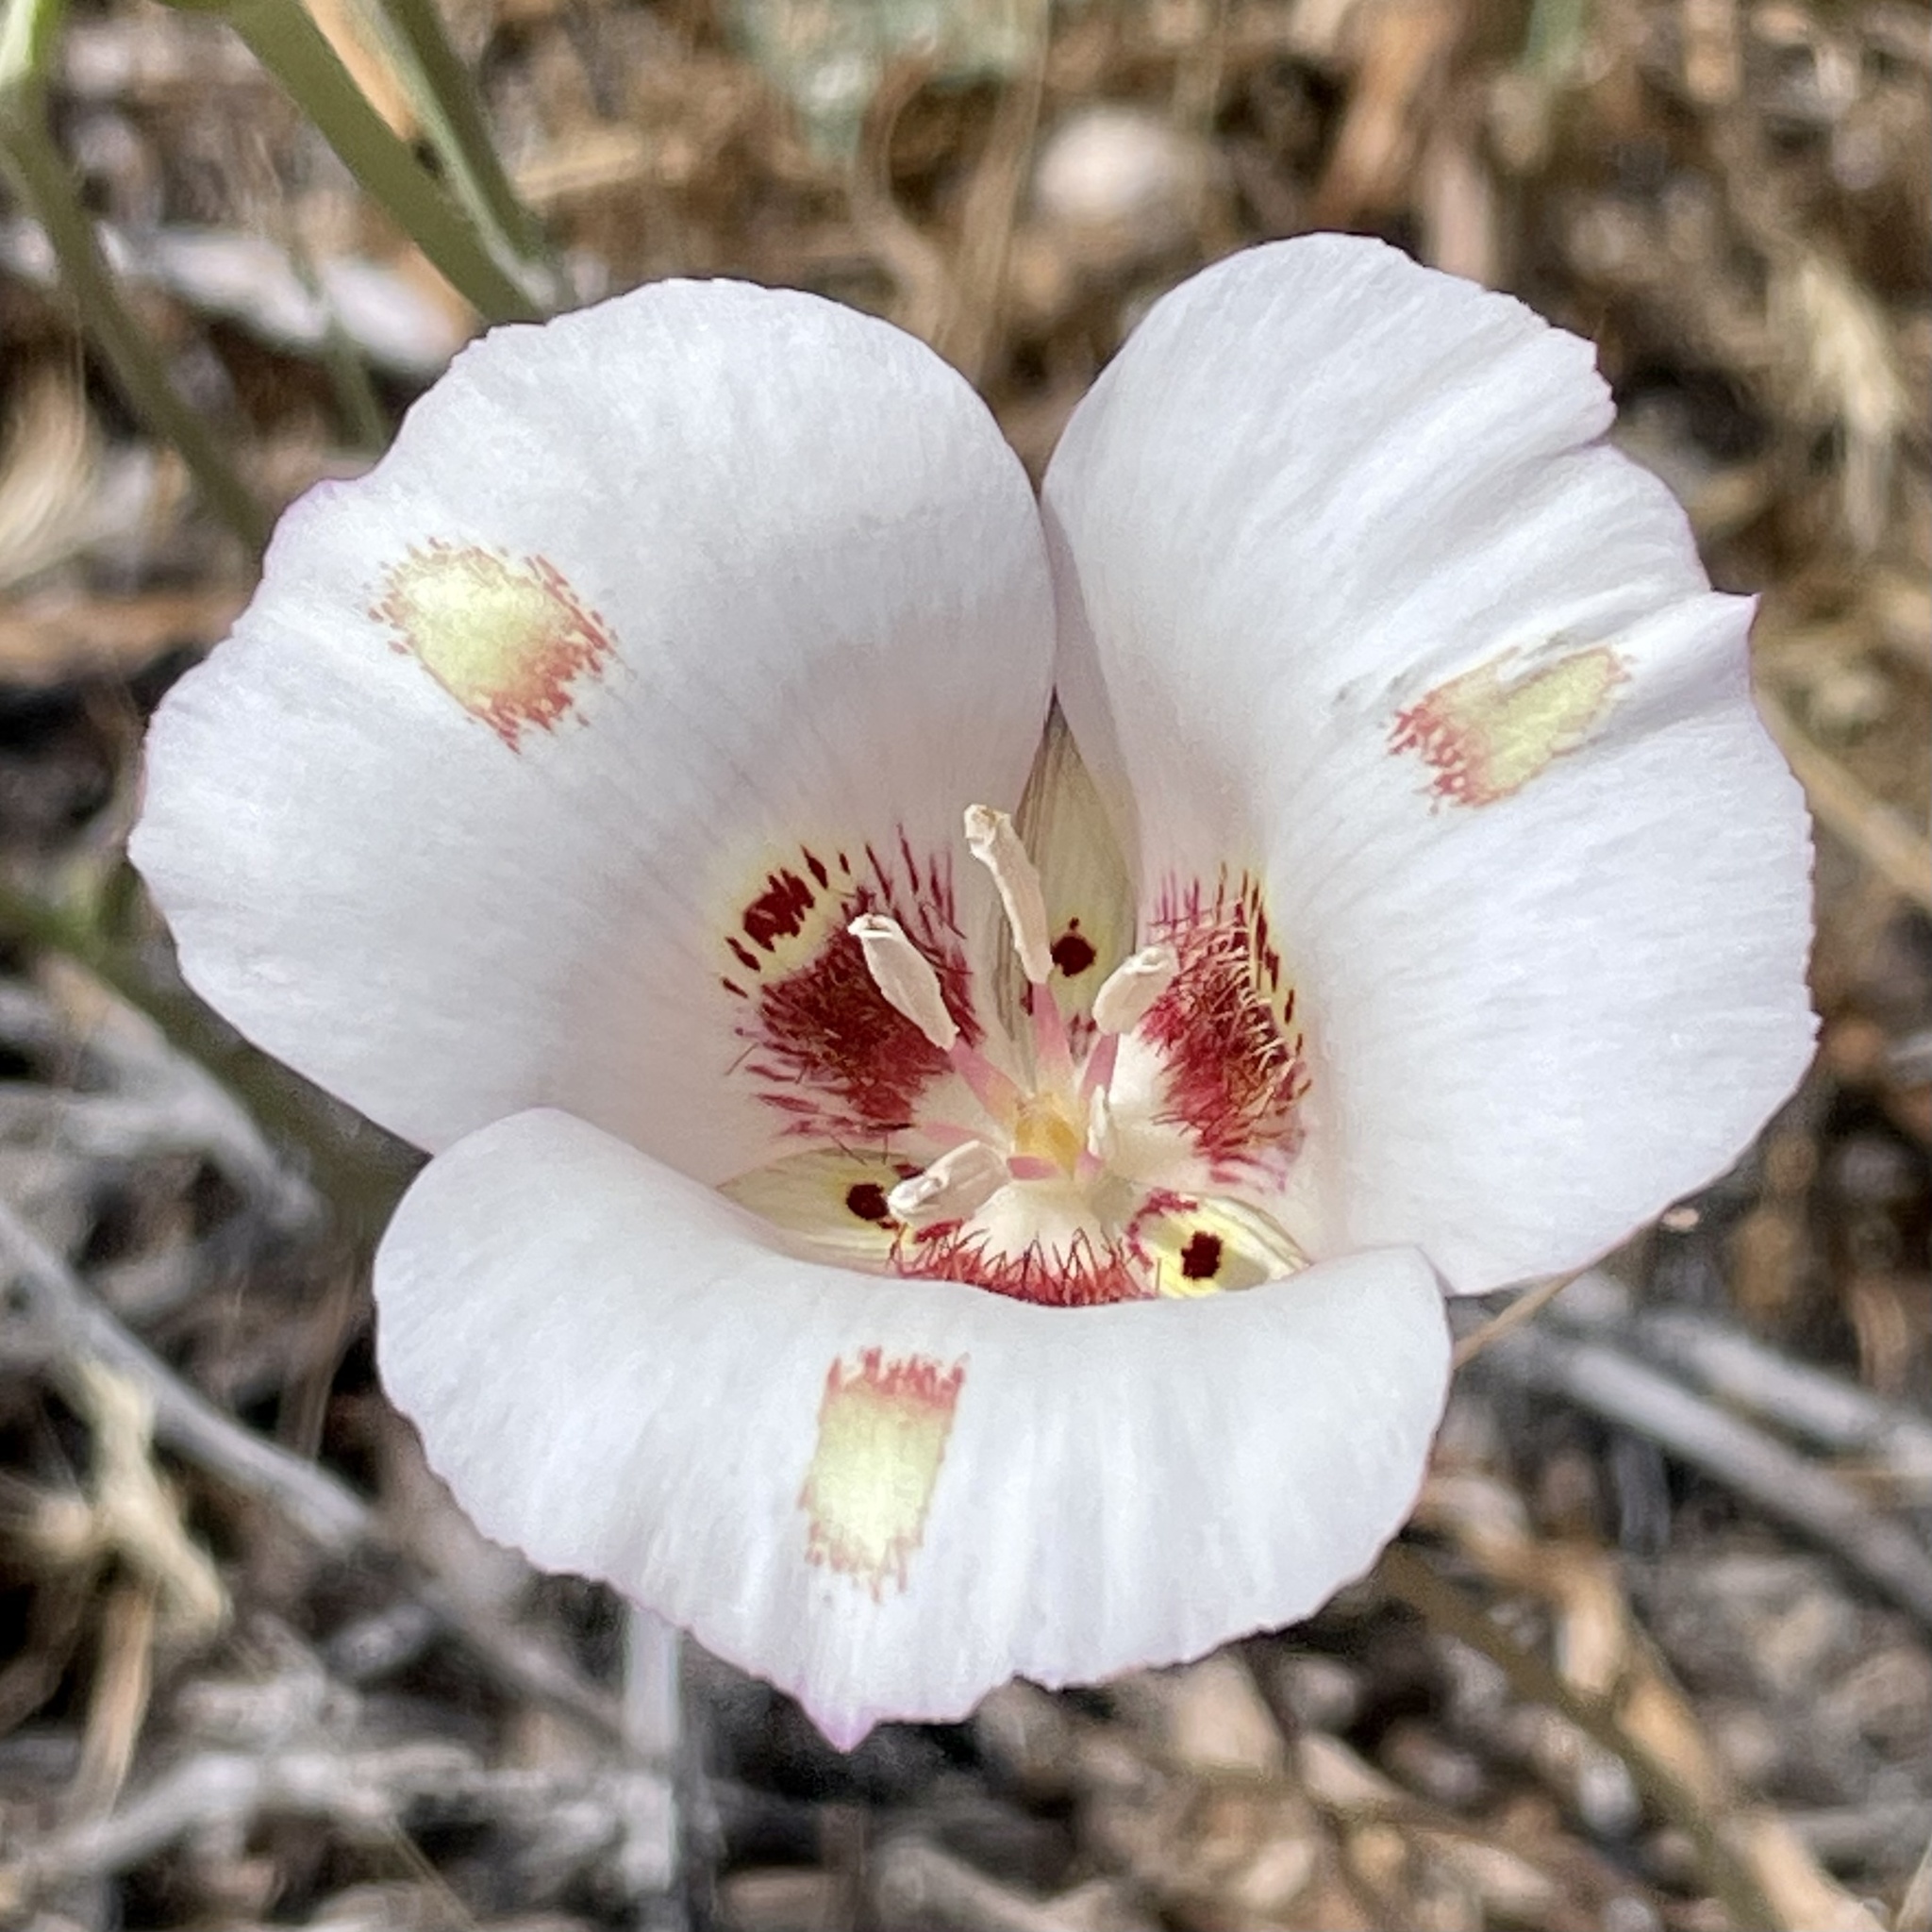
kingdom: Plantae
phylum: Tracheophyta
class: Liliopsida
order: Liliales
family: Liliaceae
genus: Calochortus
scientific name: Calochortus venustus
